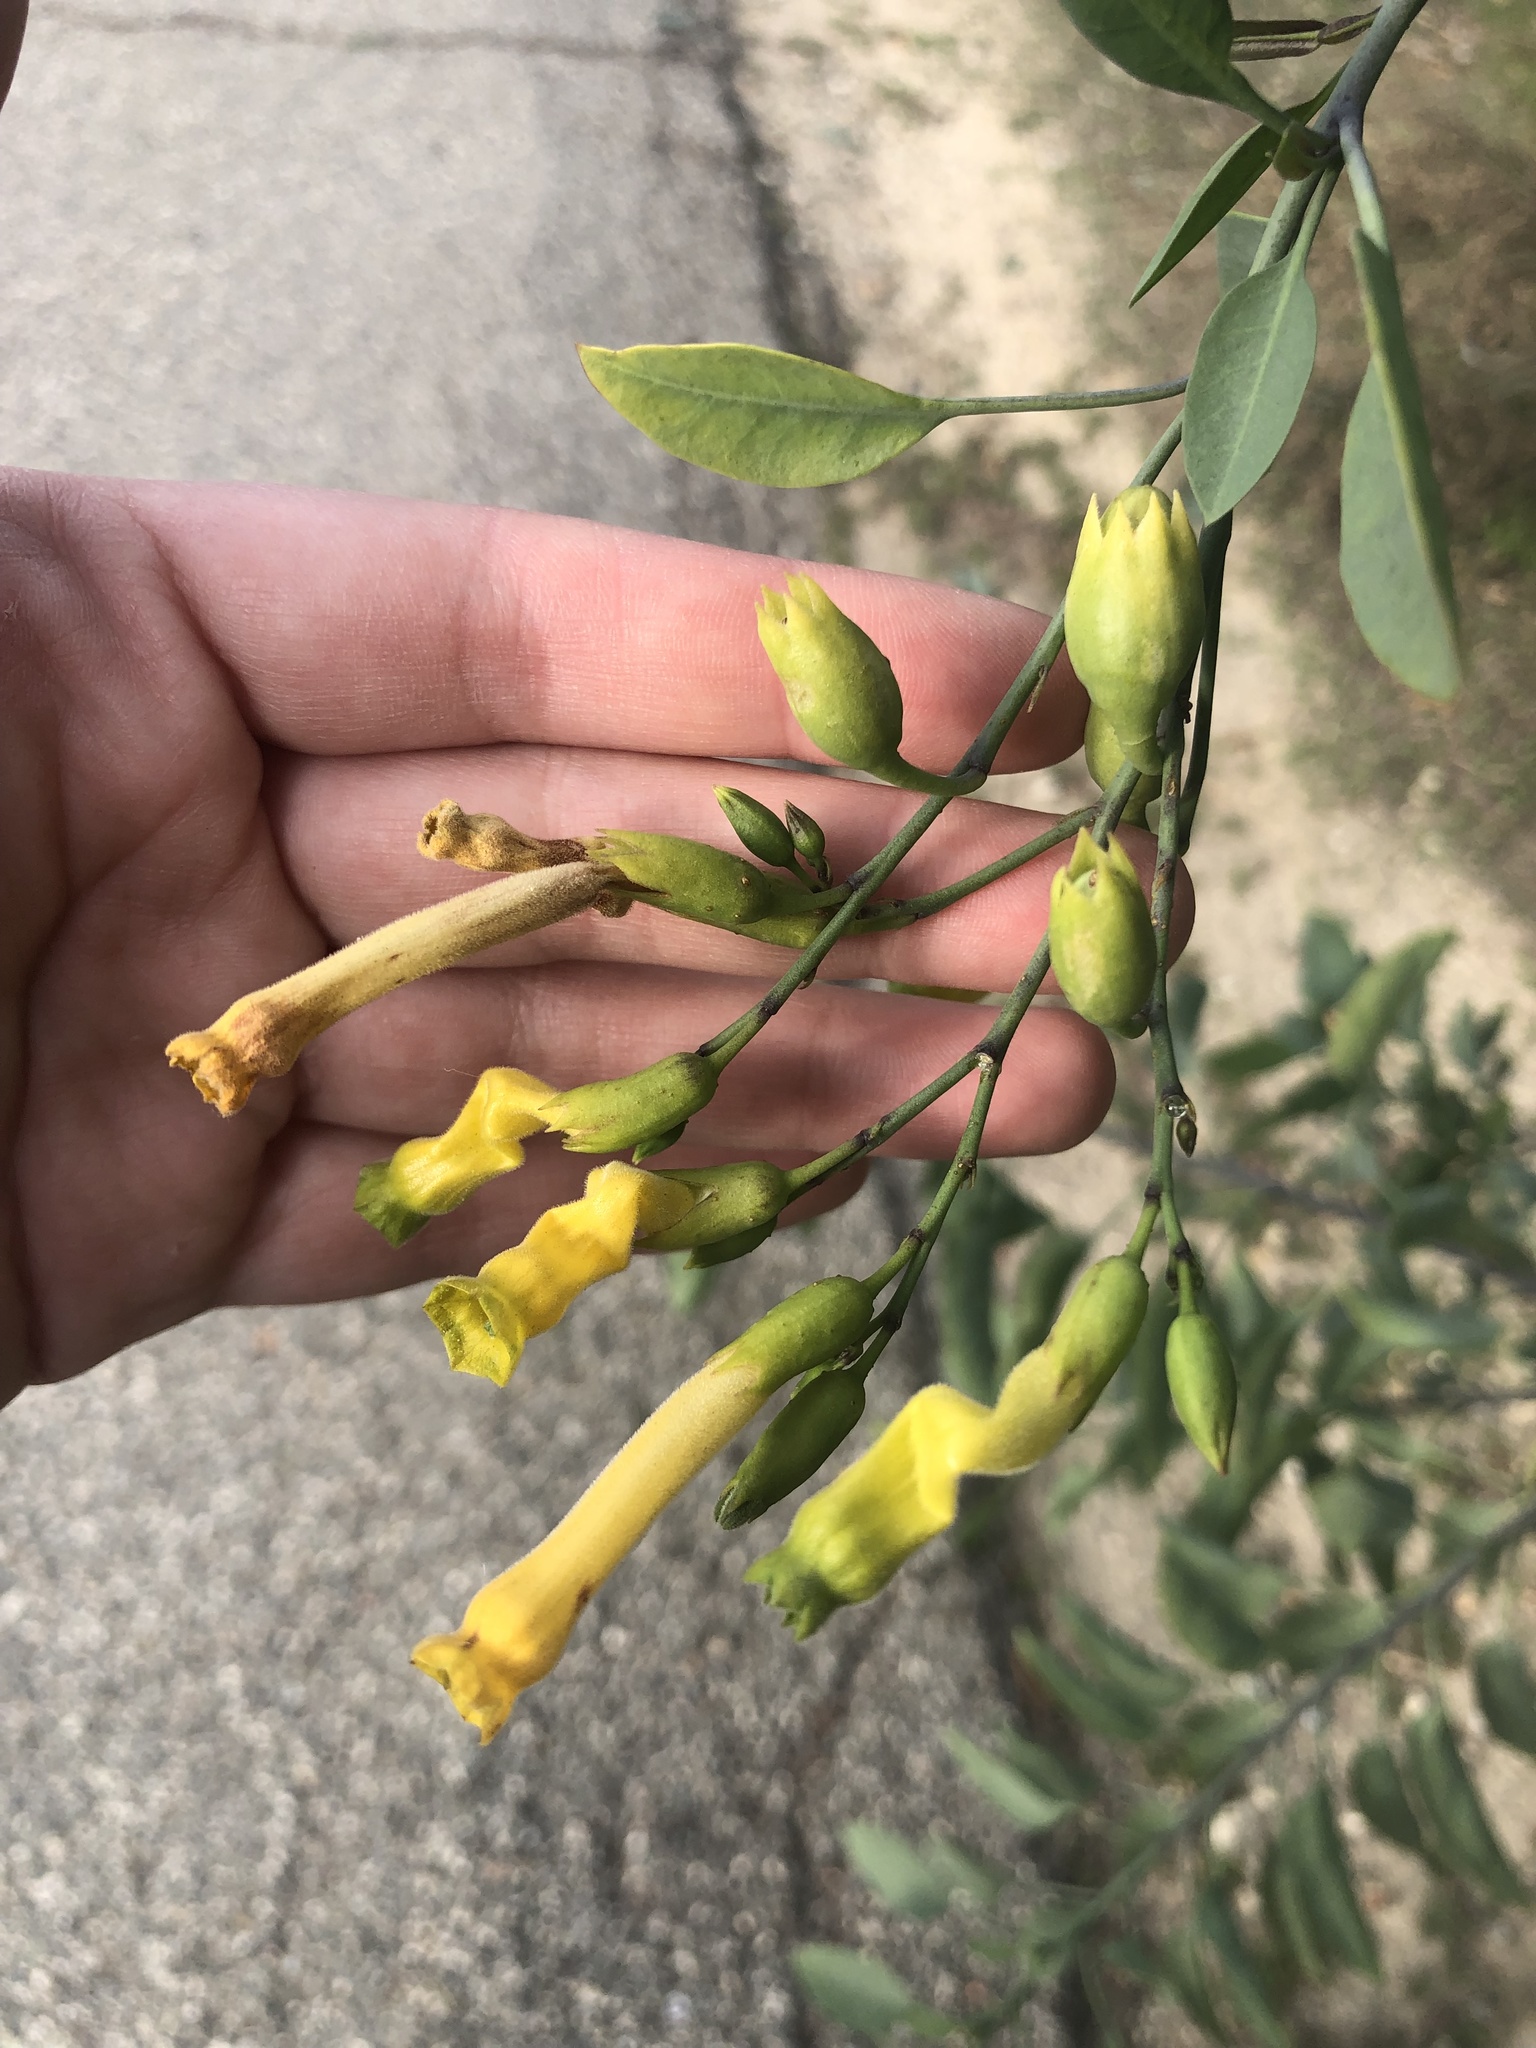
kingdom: Plantae
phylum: Tracheophyta
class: Magnoliopsida
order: Solanales
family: Solanaceae
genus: Nicotiana
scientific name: Nicotiana glauca
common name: Tree tobacco
